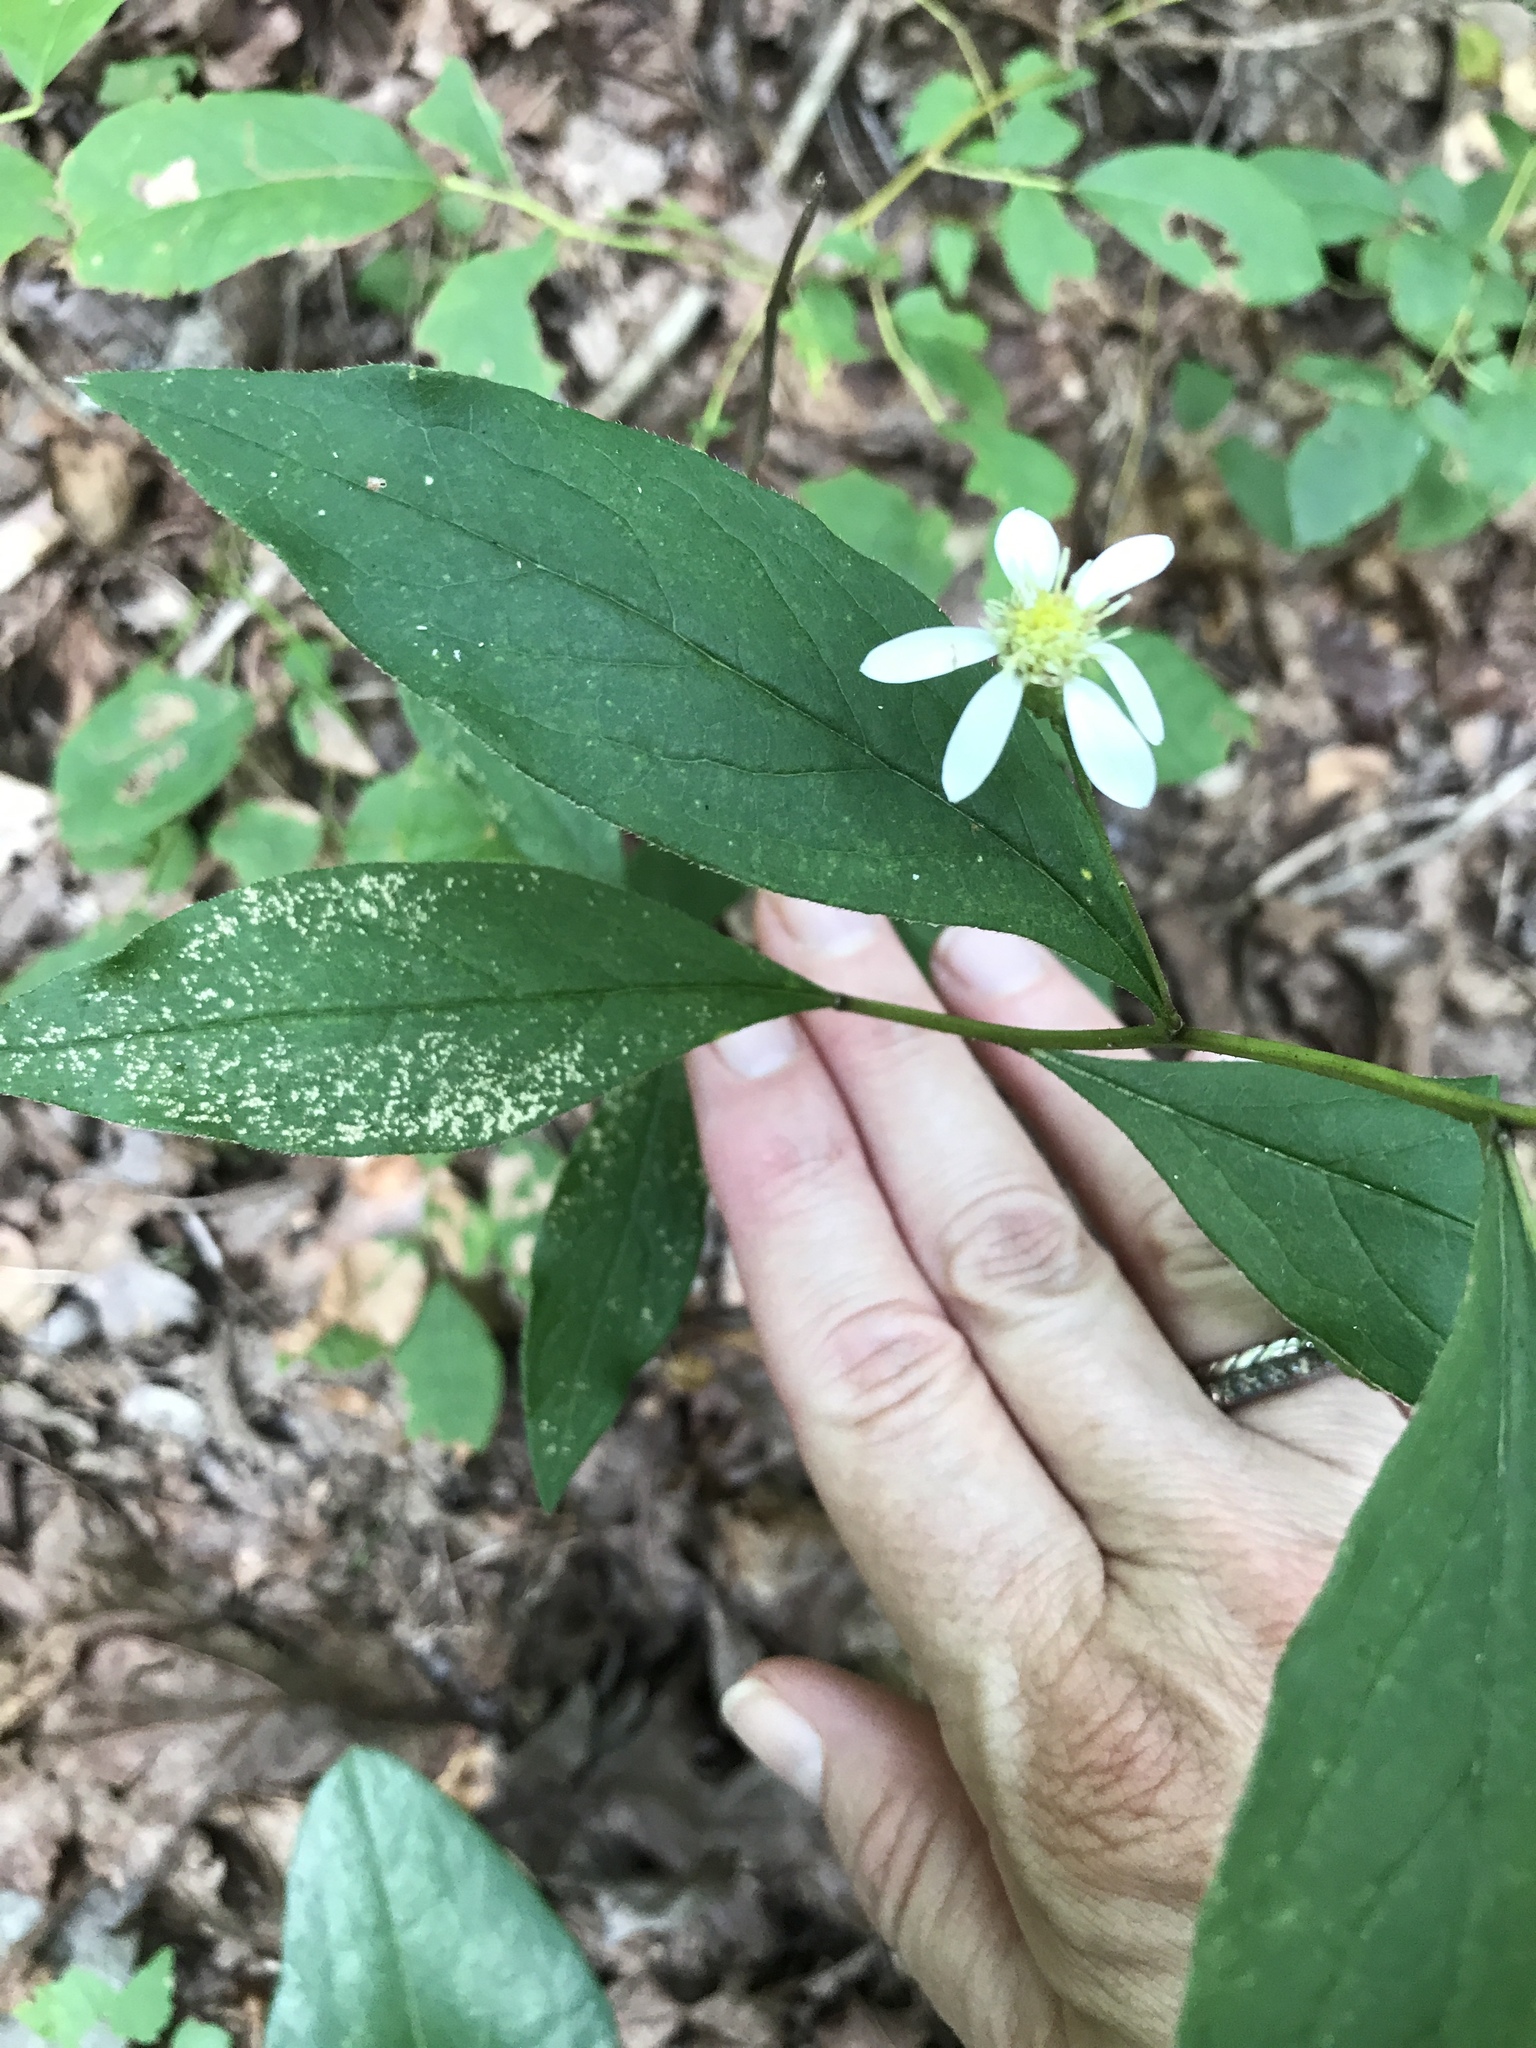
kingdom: Plantae
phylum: Tracheophyta
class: Magnoliopsida
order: Asterales
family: Asteraceae
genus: Doellingeria
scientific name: Doellingeria infirma
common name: Appalachian flat-top aster
